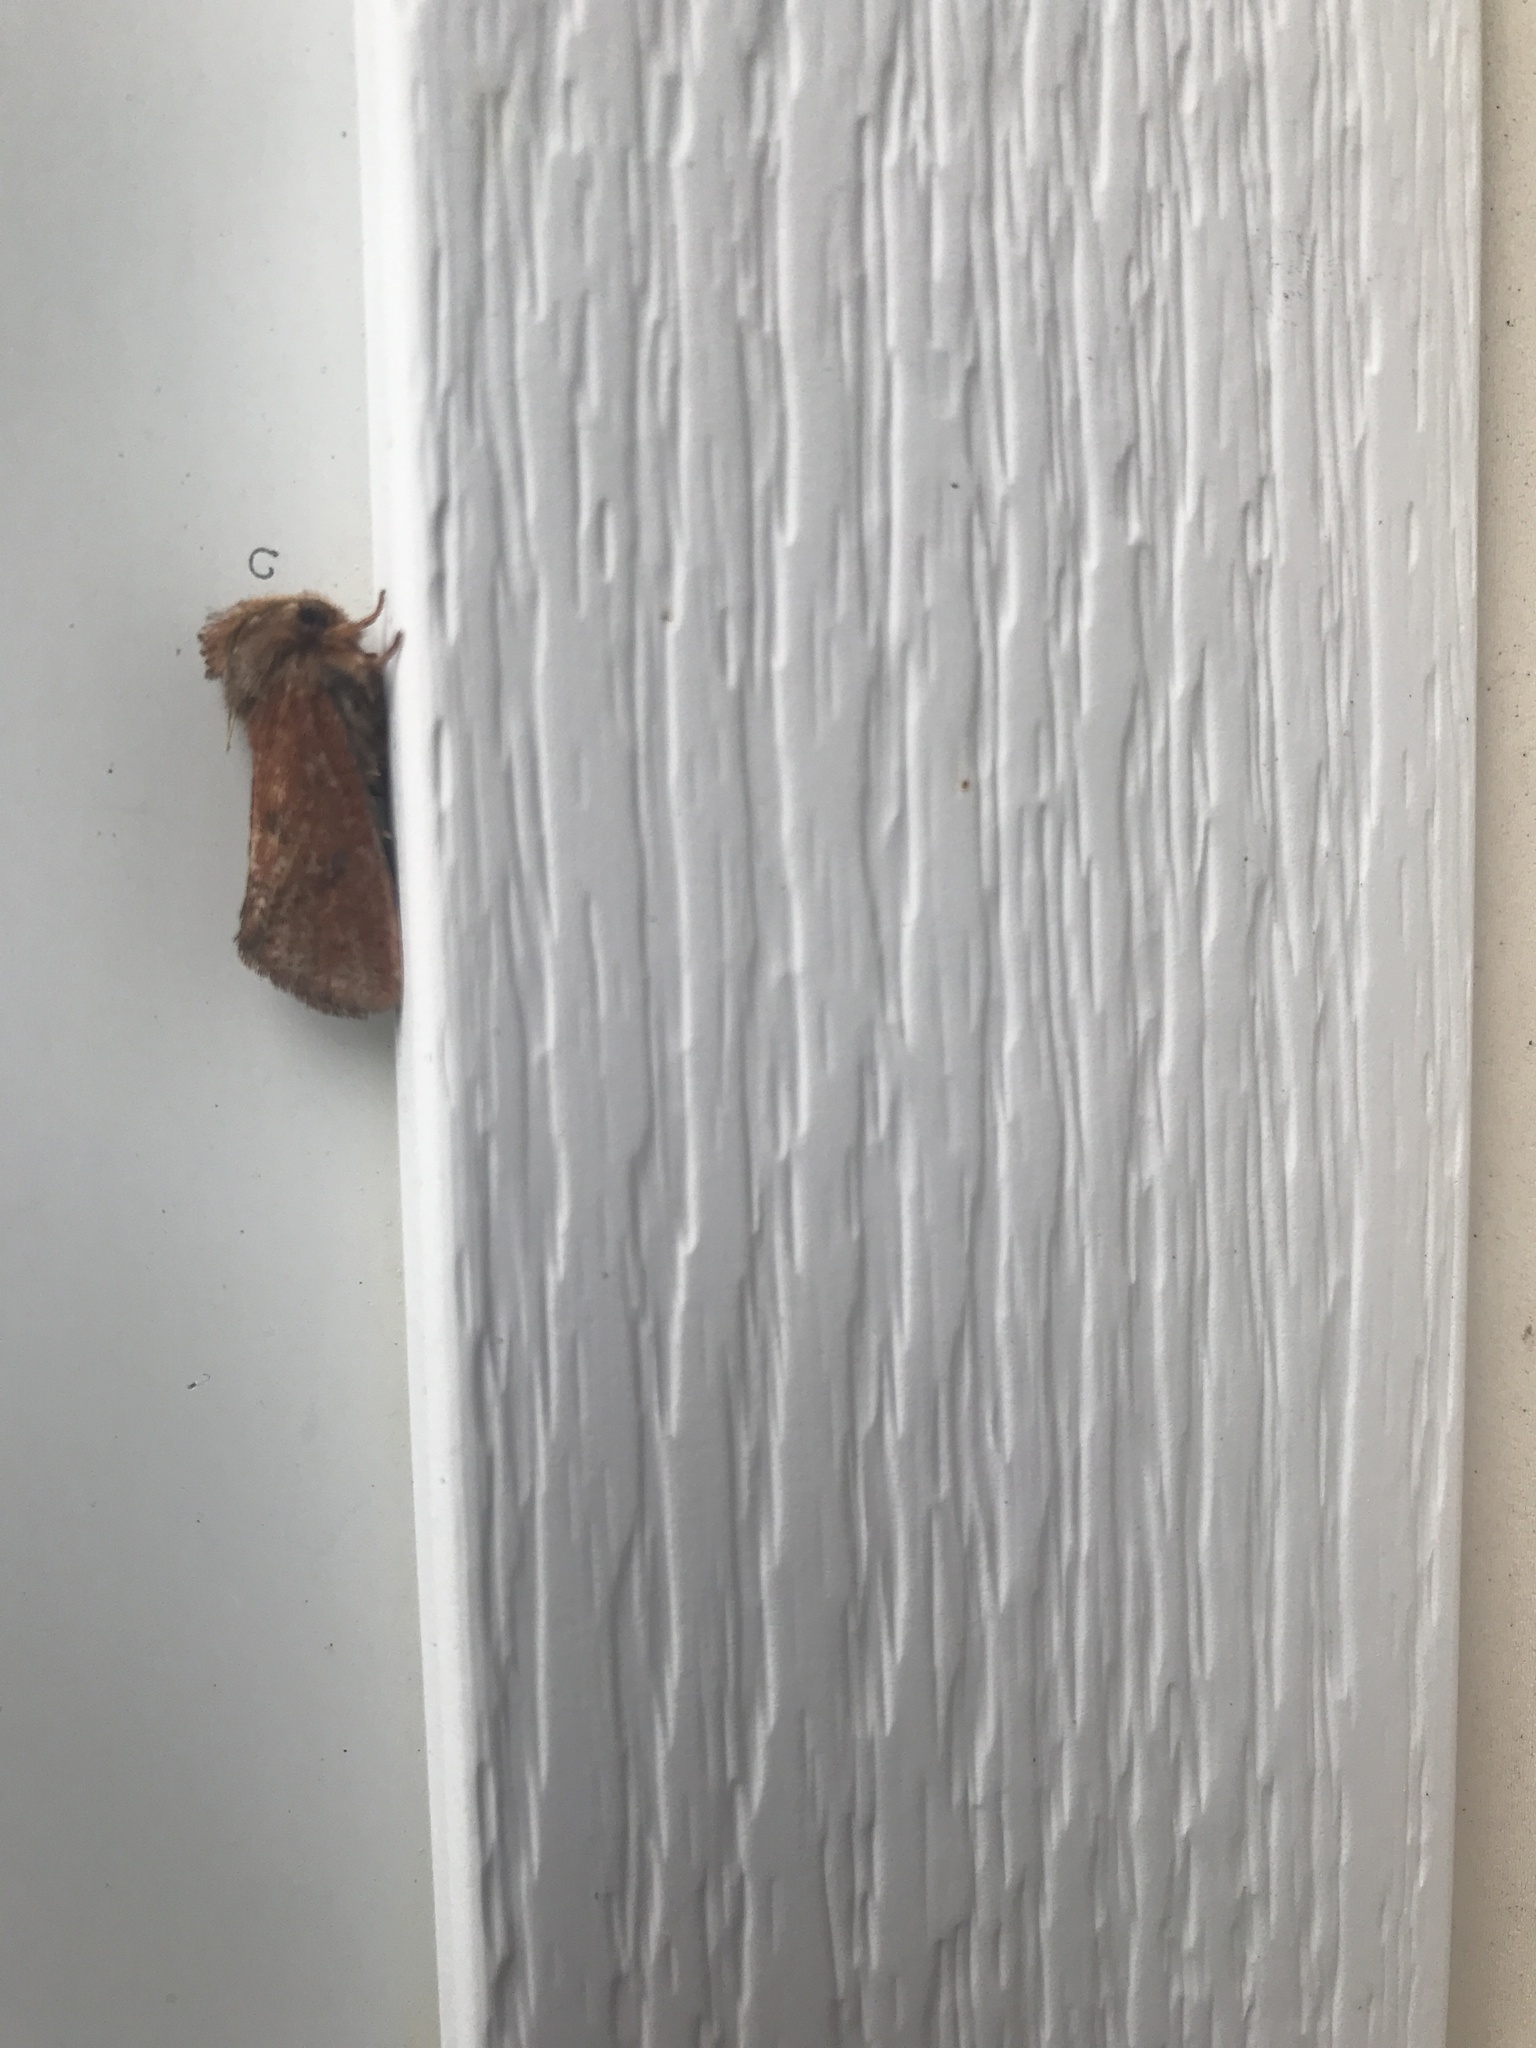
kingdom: Animalia
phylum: Arthropoda
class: Insecta
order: Lepidoptera
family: Tineidae
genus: Acrolophus
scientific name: Acrolophus plumifrontella
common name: Eastern grass tubeworm moth
